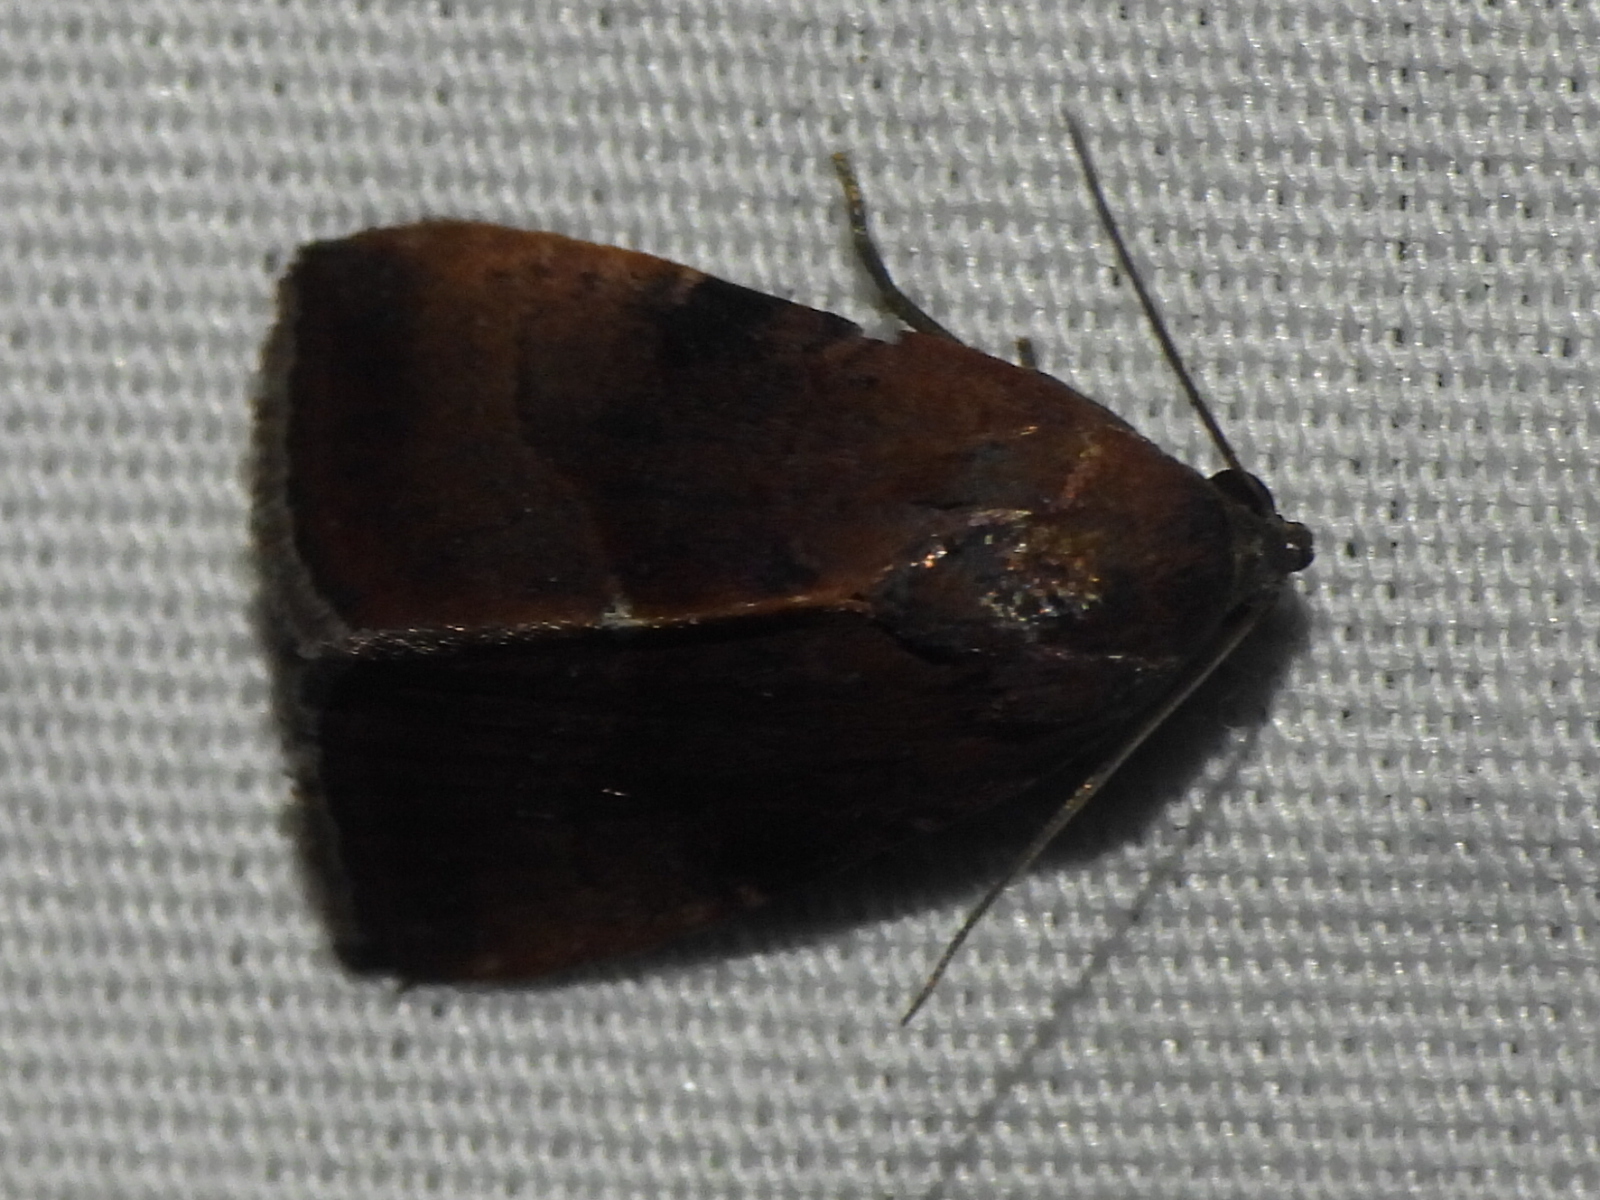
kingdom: Animalia
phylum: Arthropoda
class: Insecta
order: Lepidoptera
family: Noctuidae
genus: Galgula
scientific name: Galgula partita
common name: Wedgeling
